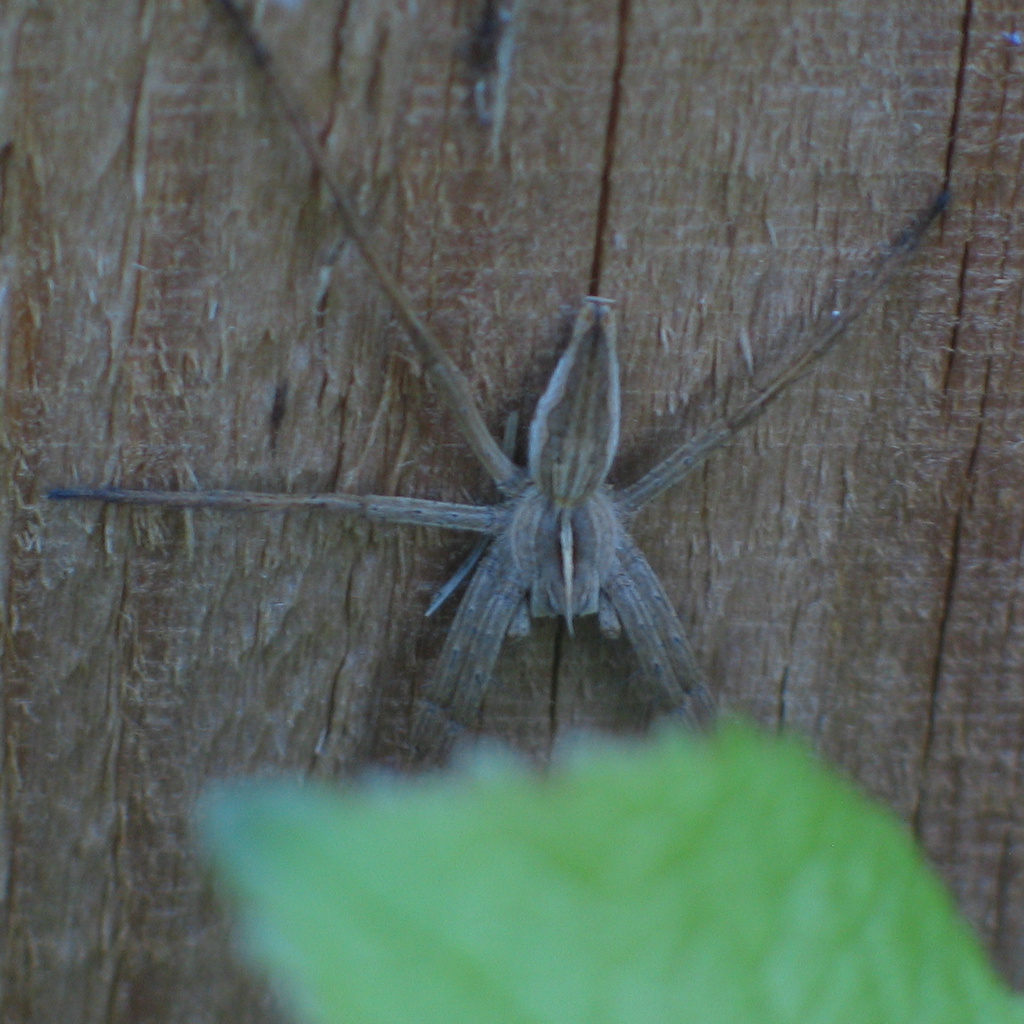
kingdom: Animalia
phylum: Arthropoda
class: Arachnida
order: Araneae
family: Pisauridae
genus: Pisaura
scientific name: Pisaura mirabilis
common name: Tent spider
